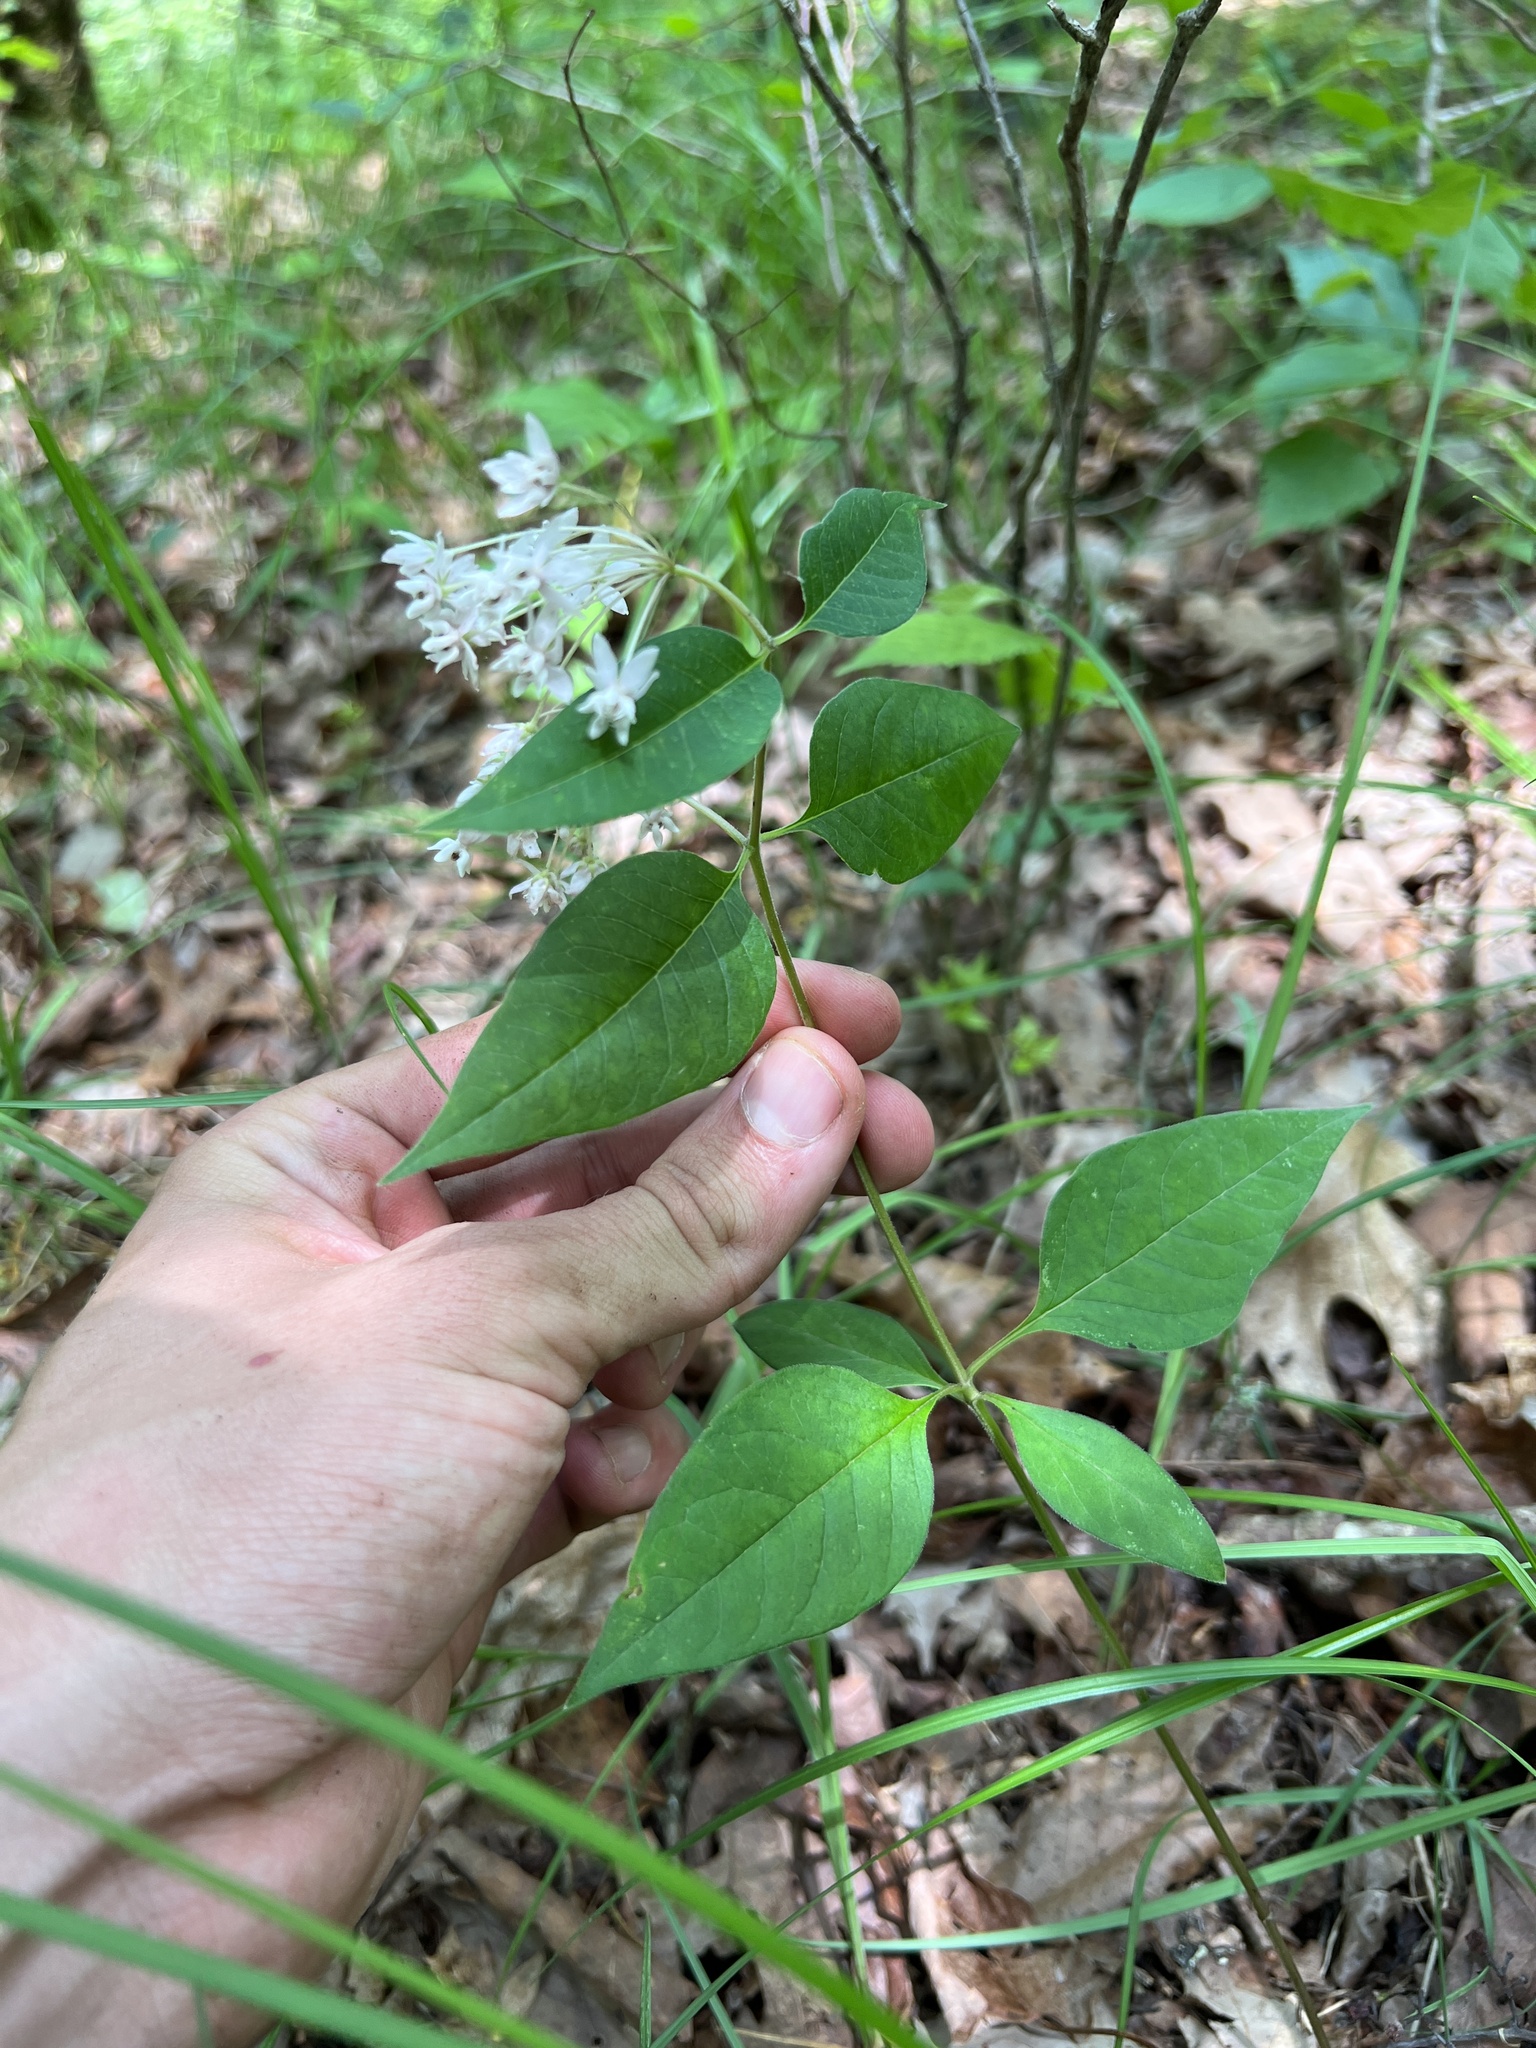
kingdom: Plantae
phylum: Tracheophyta
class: Magnoliopsida
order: Gentianales
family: Apocynaceae
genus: Asclepias
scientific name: Asclepias quadrifolia
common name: Whorled milkweed
